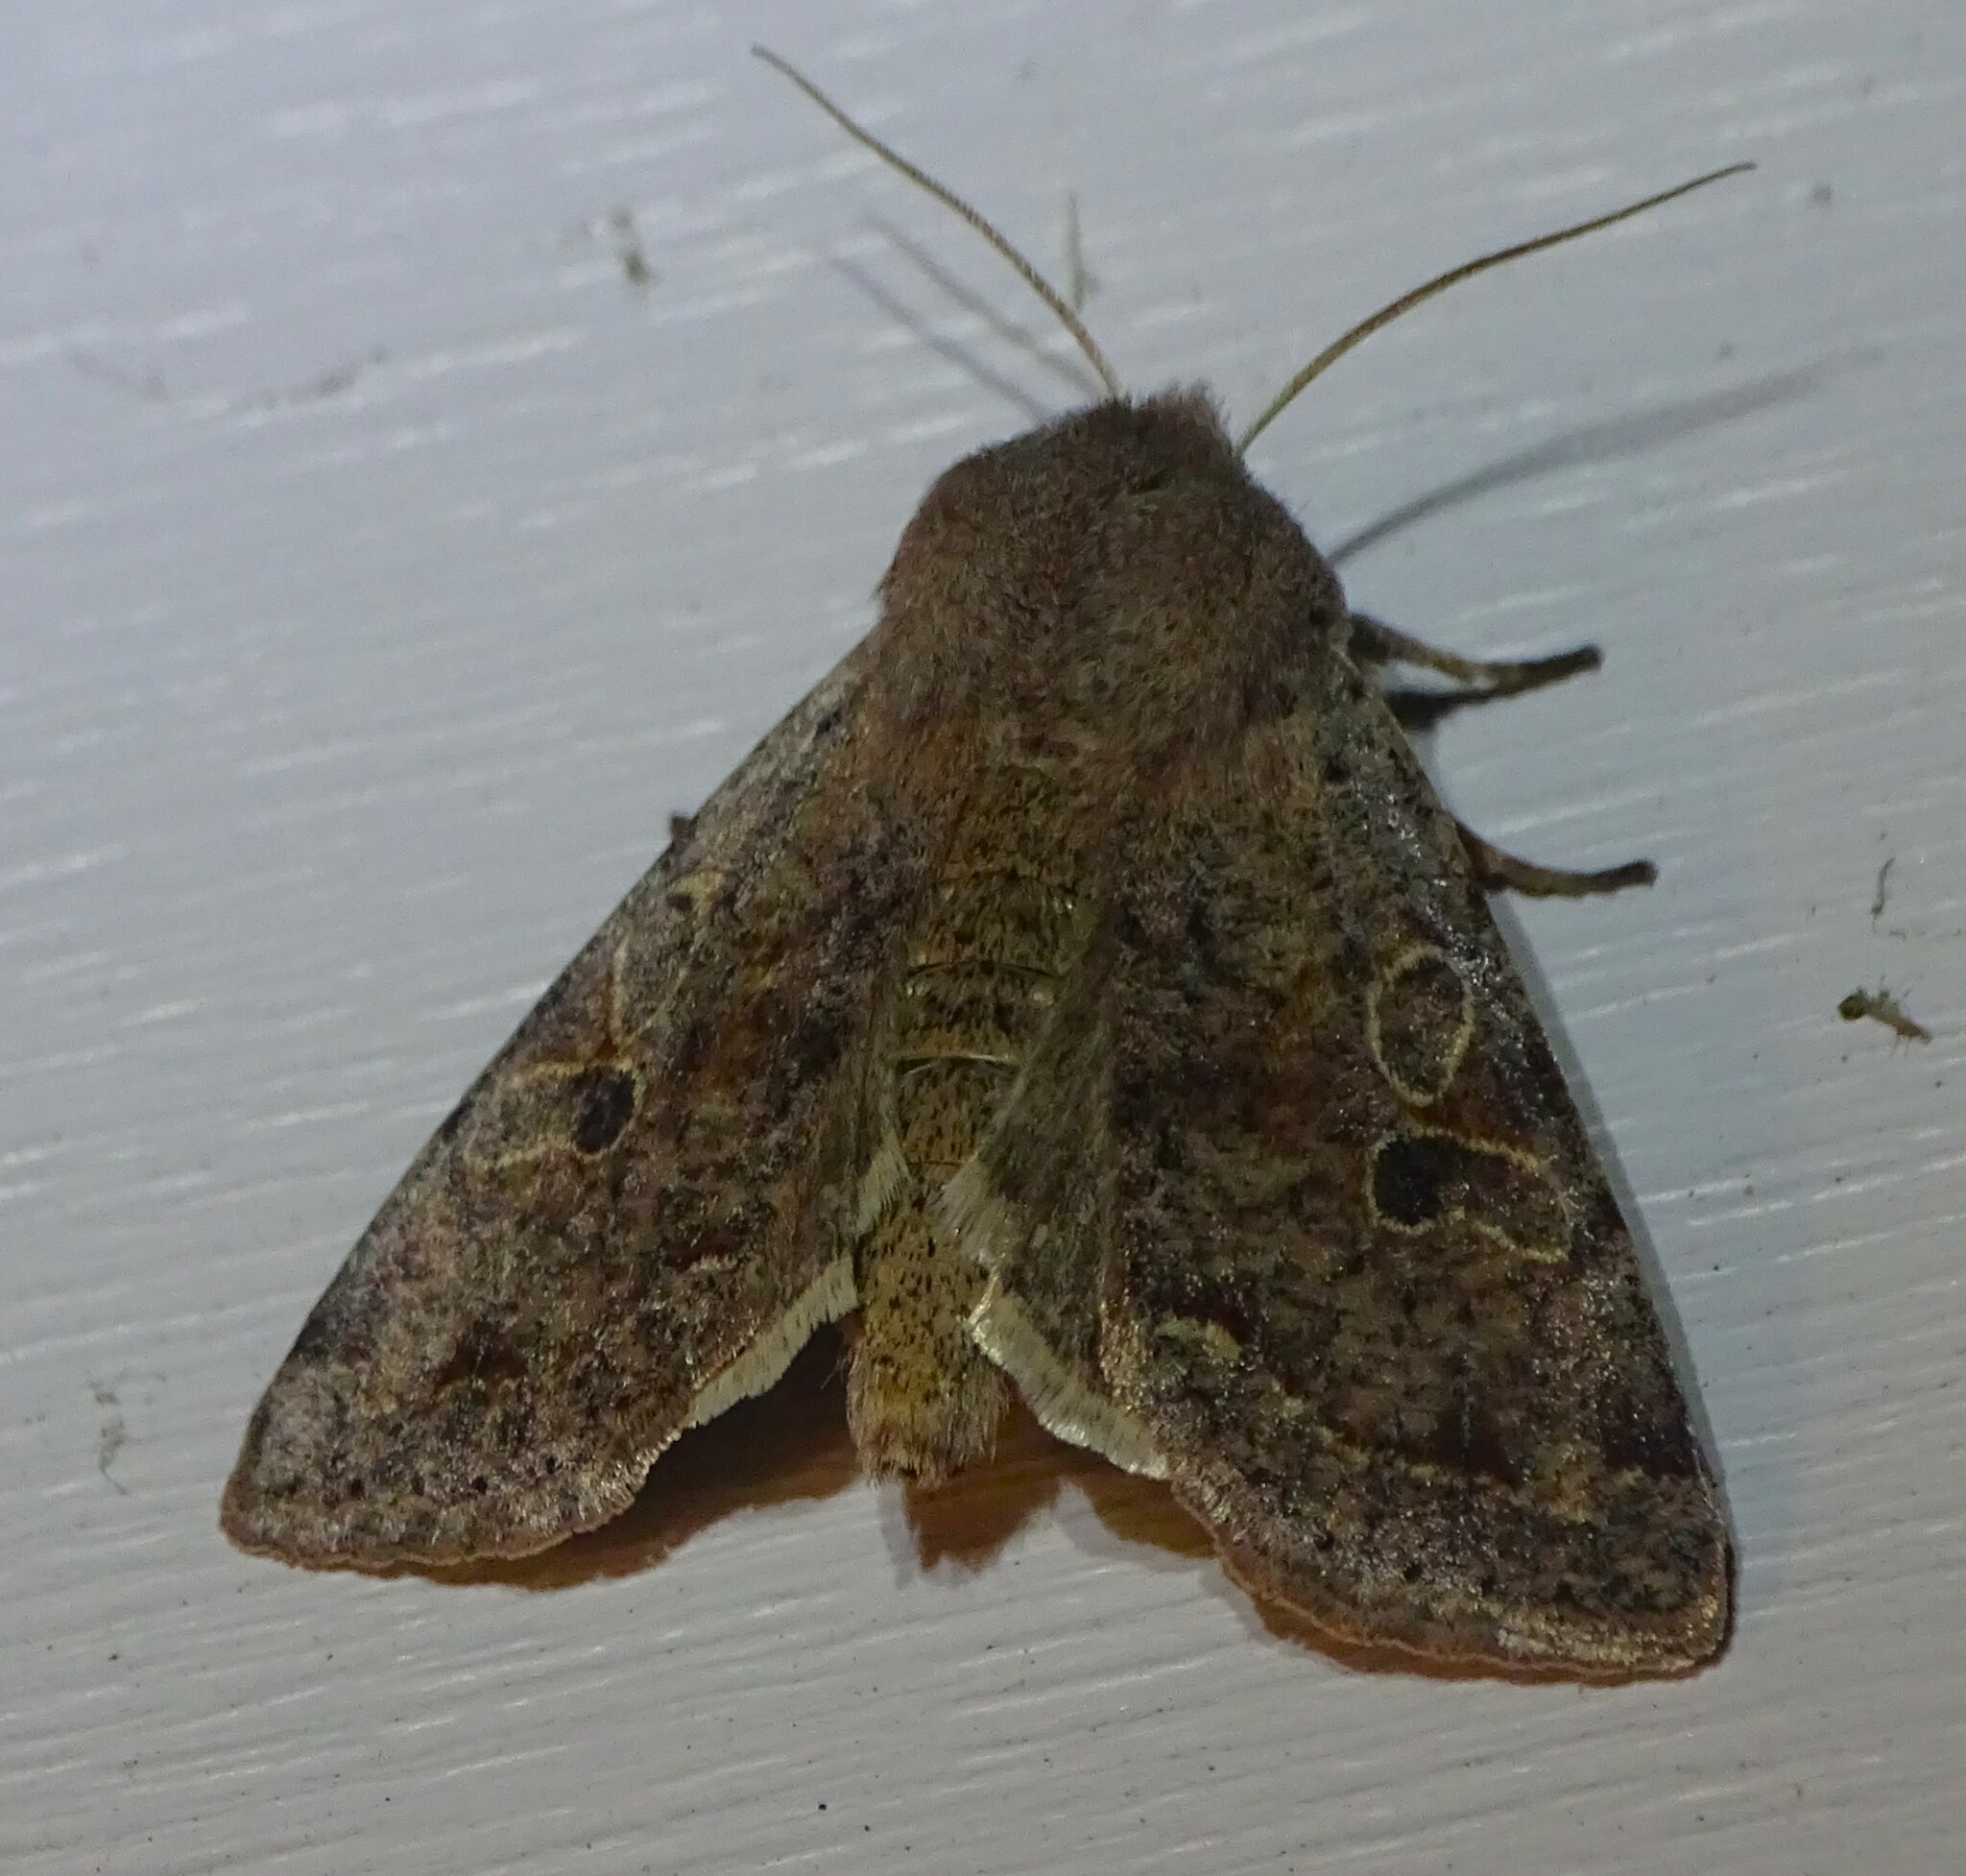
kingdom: Animalia
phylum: Arthropoda
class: Insecta
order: Lepidoptera
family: Noctuidae
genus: Orthosia
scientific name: Orthosia hibisci
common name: Green fruitworm
